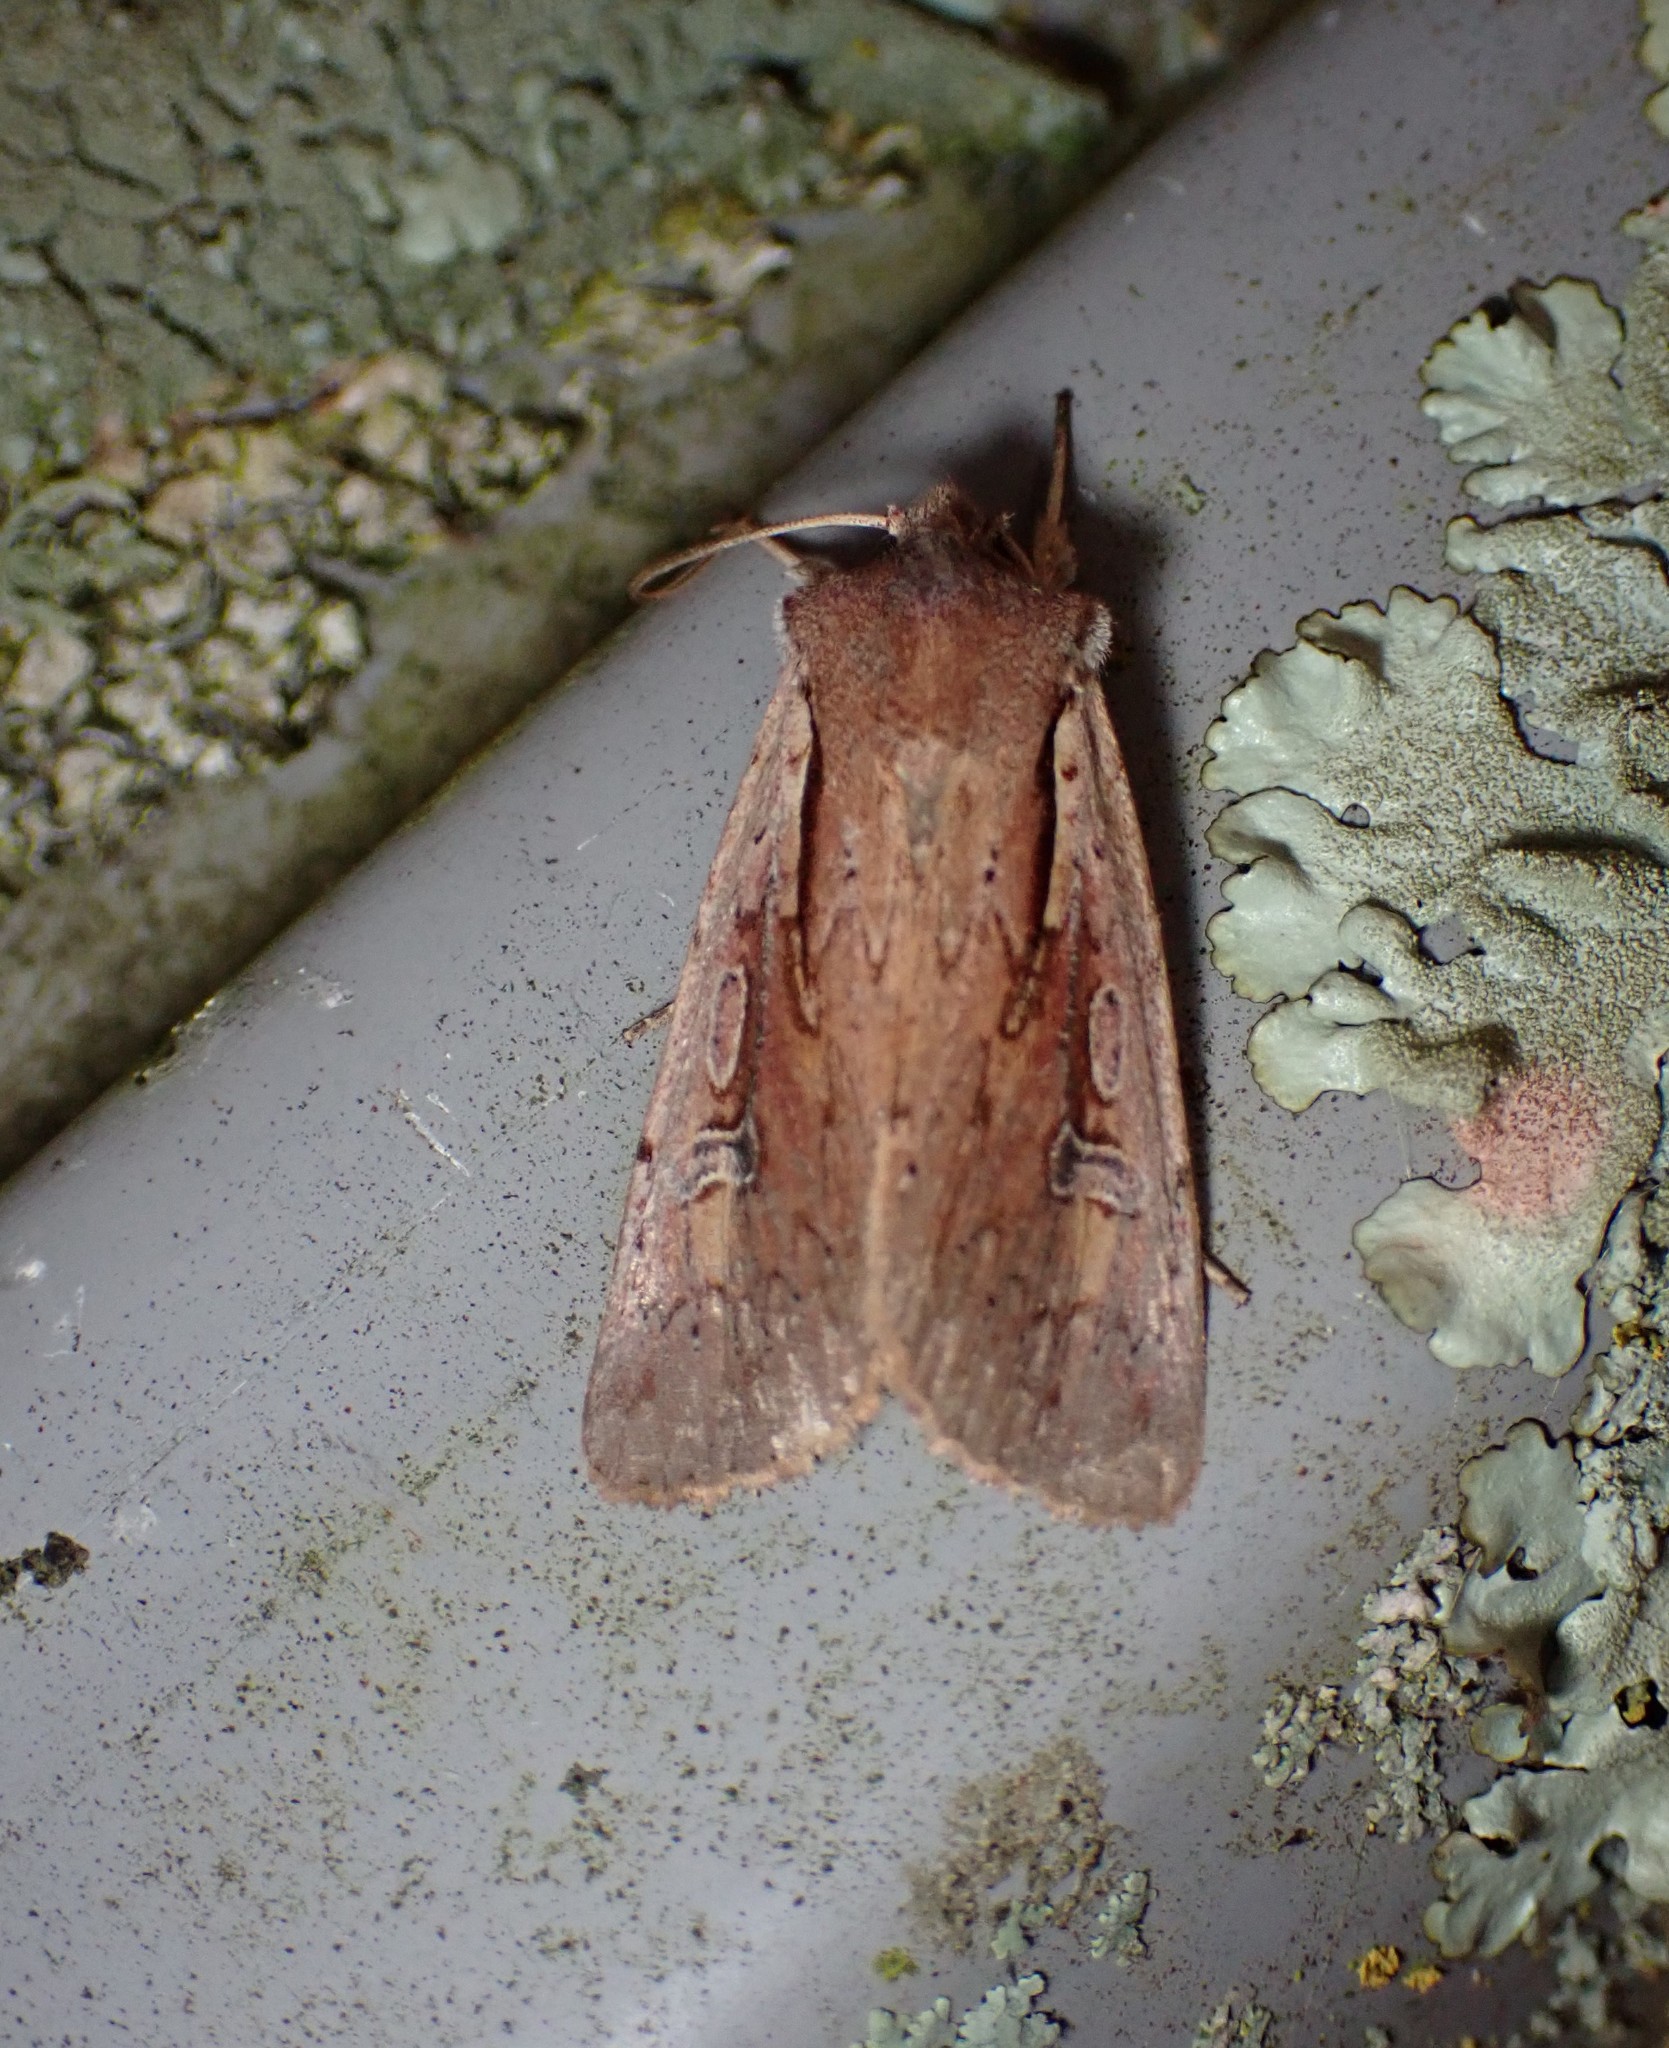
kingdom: Animalia
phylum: Arthropoda
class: Insecta
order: Lepidoptera
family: Noctuidae
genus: Ichneutica
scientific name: Ichneutica atristriga
